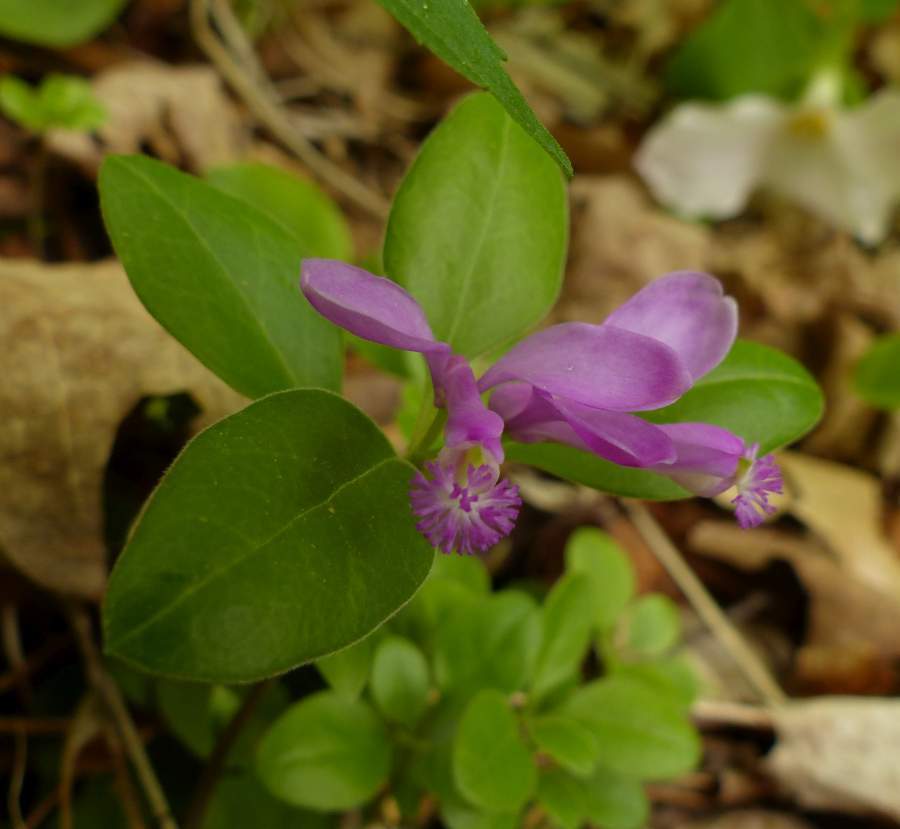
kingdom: Plantae
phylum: Tracheophyta
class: Magnoliopsida
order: Fabales
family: Polygalaceae
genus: Polygaloides
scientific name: Polygaloides paucifolia
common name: Bird-on-the-wing
